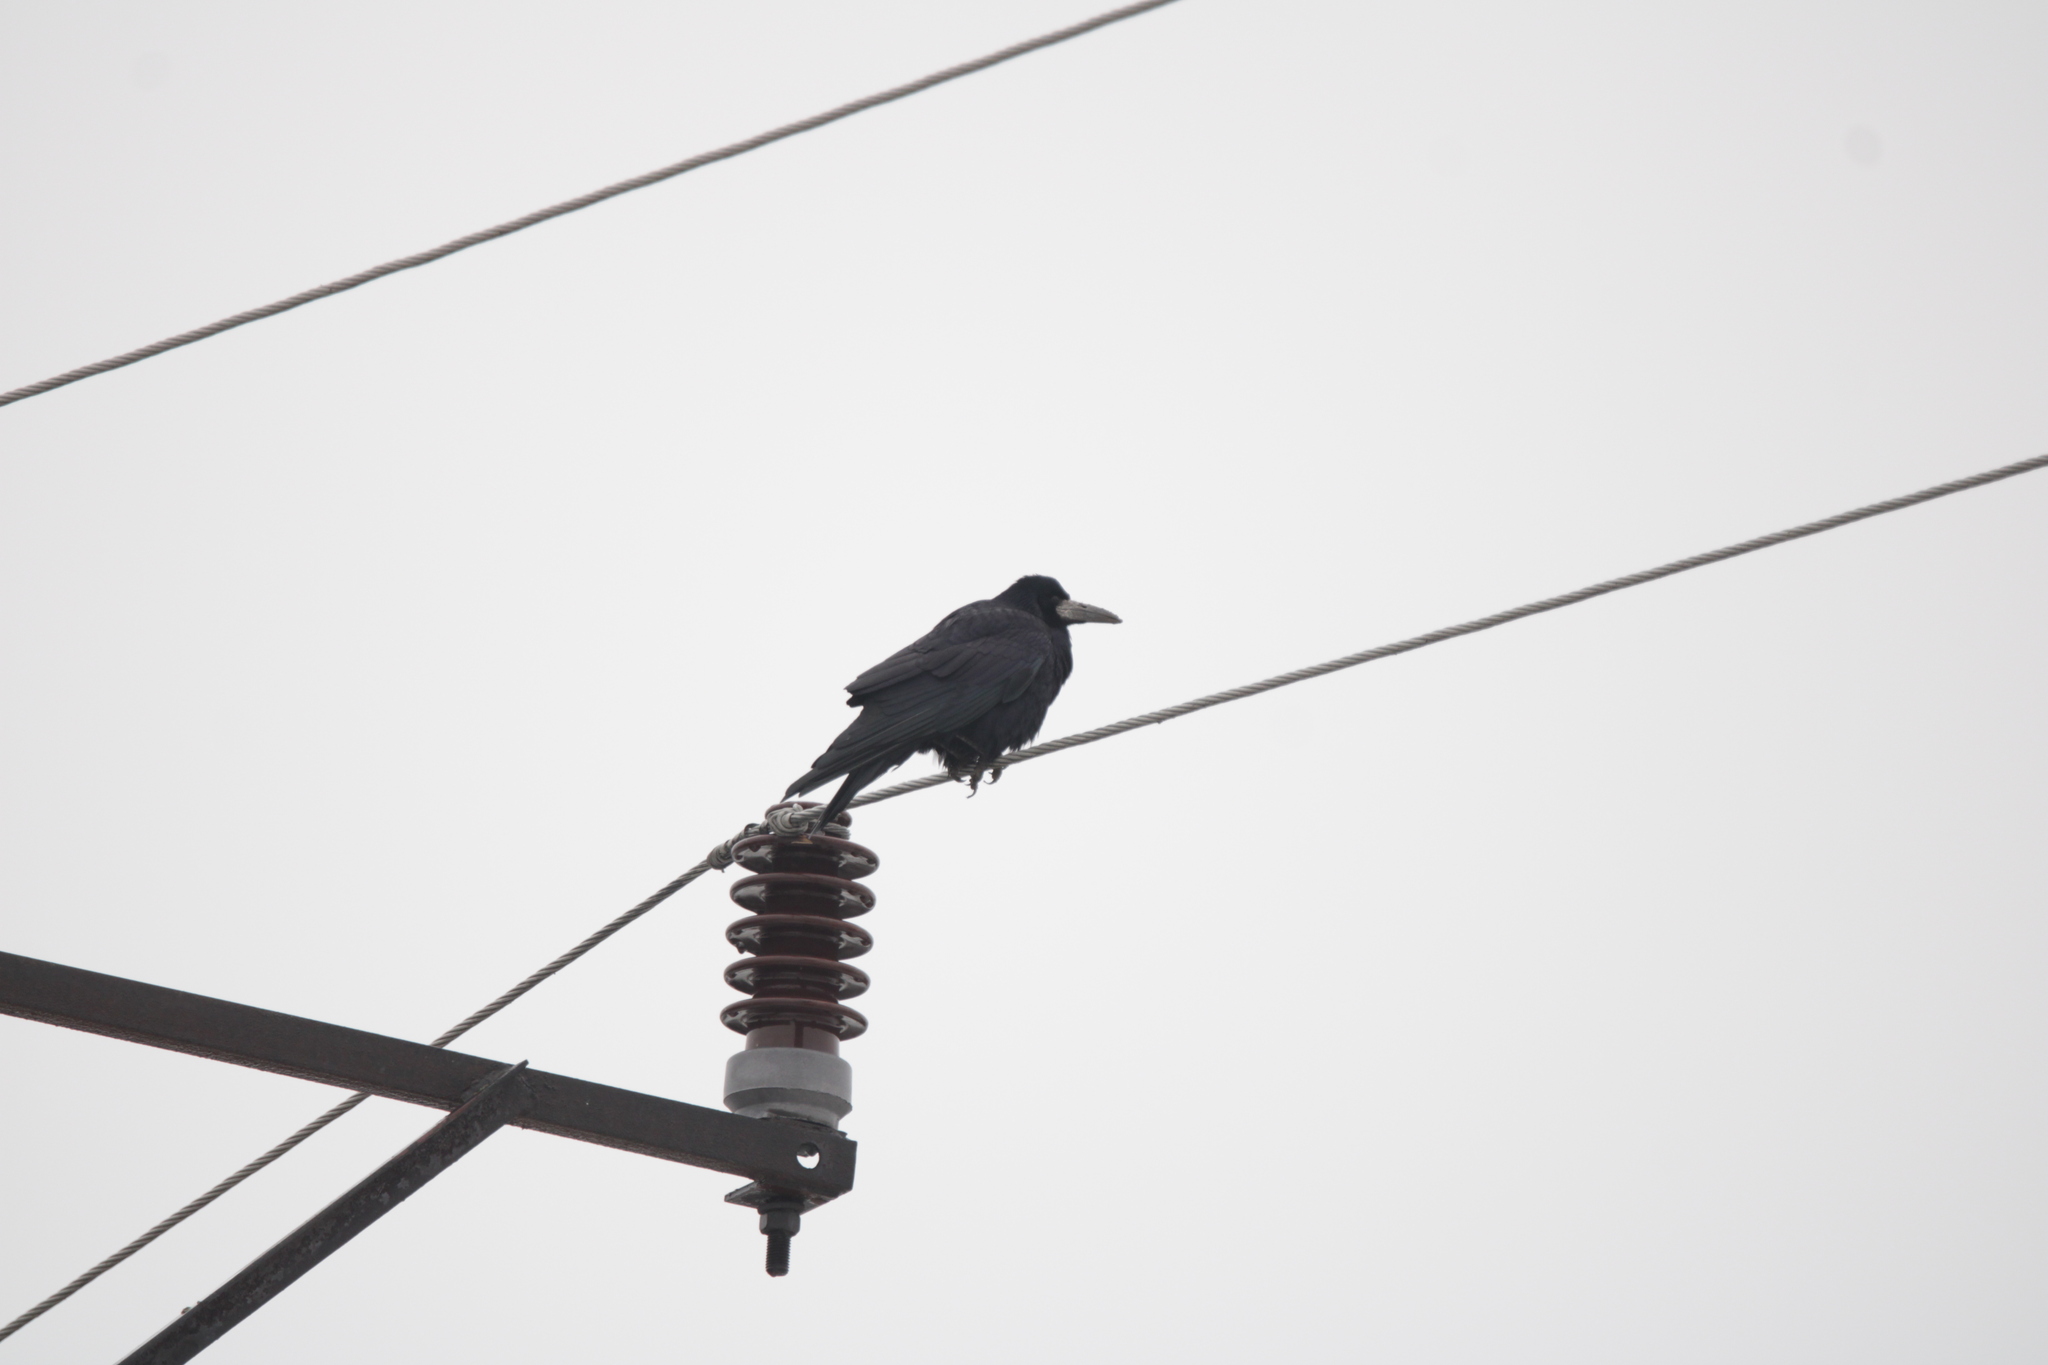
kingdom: Animalia
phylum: Chordata
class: Aves
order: Passeriformes
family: Corvidae
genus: Corvus
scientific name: Corvus frugilegus
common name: Rook
